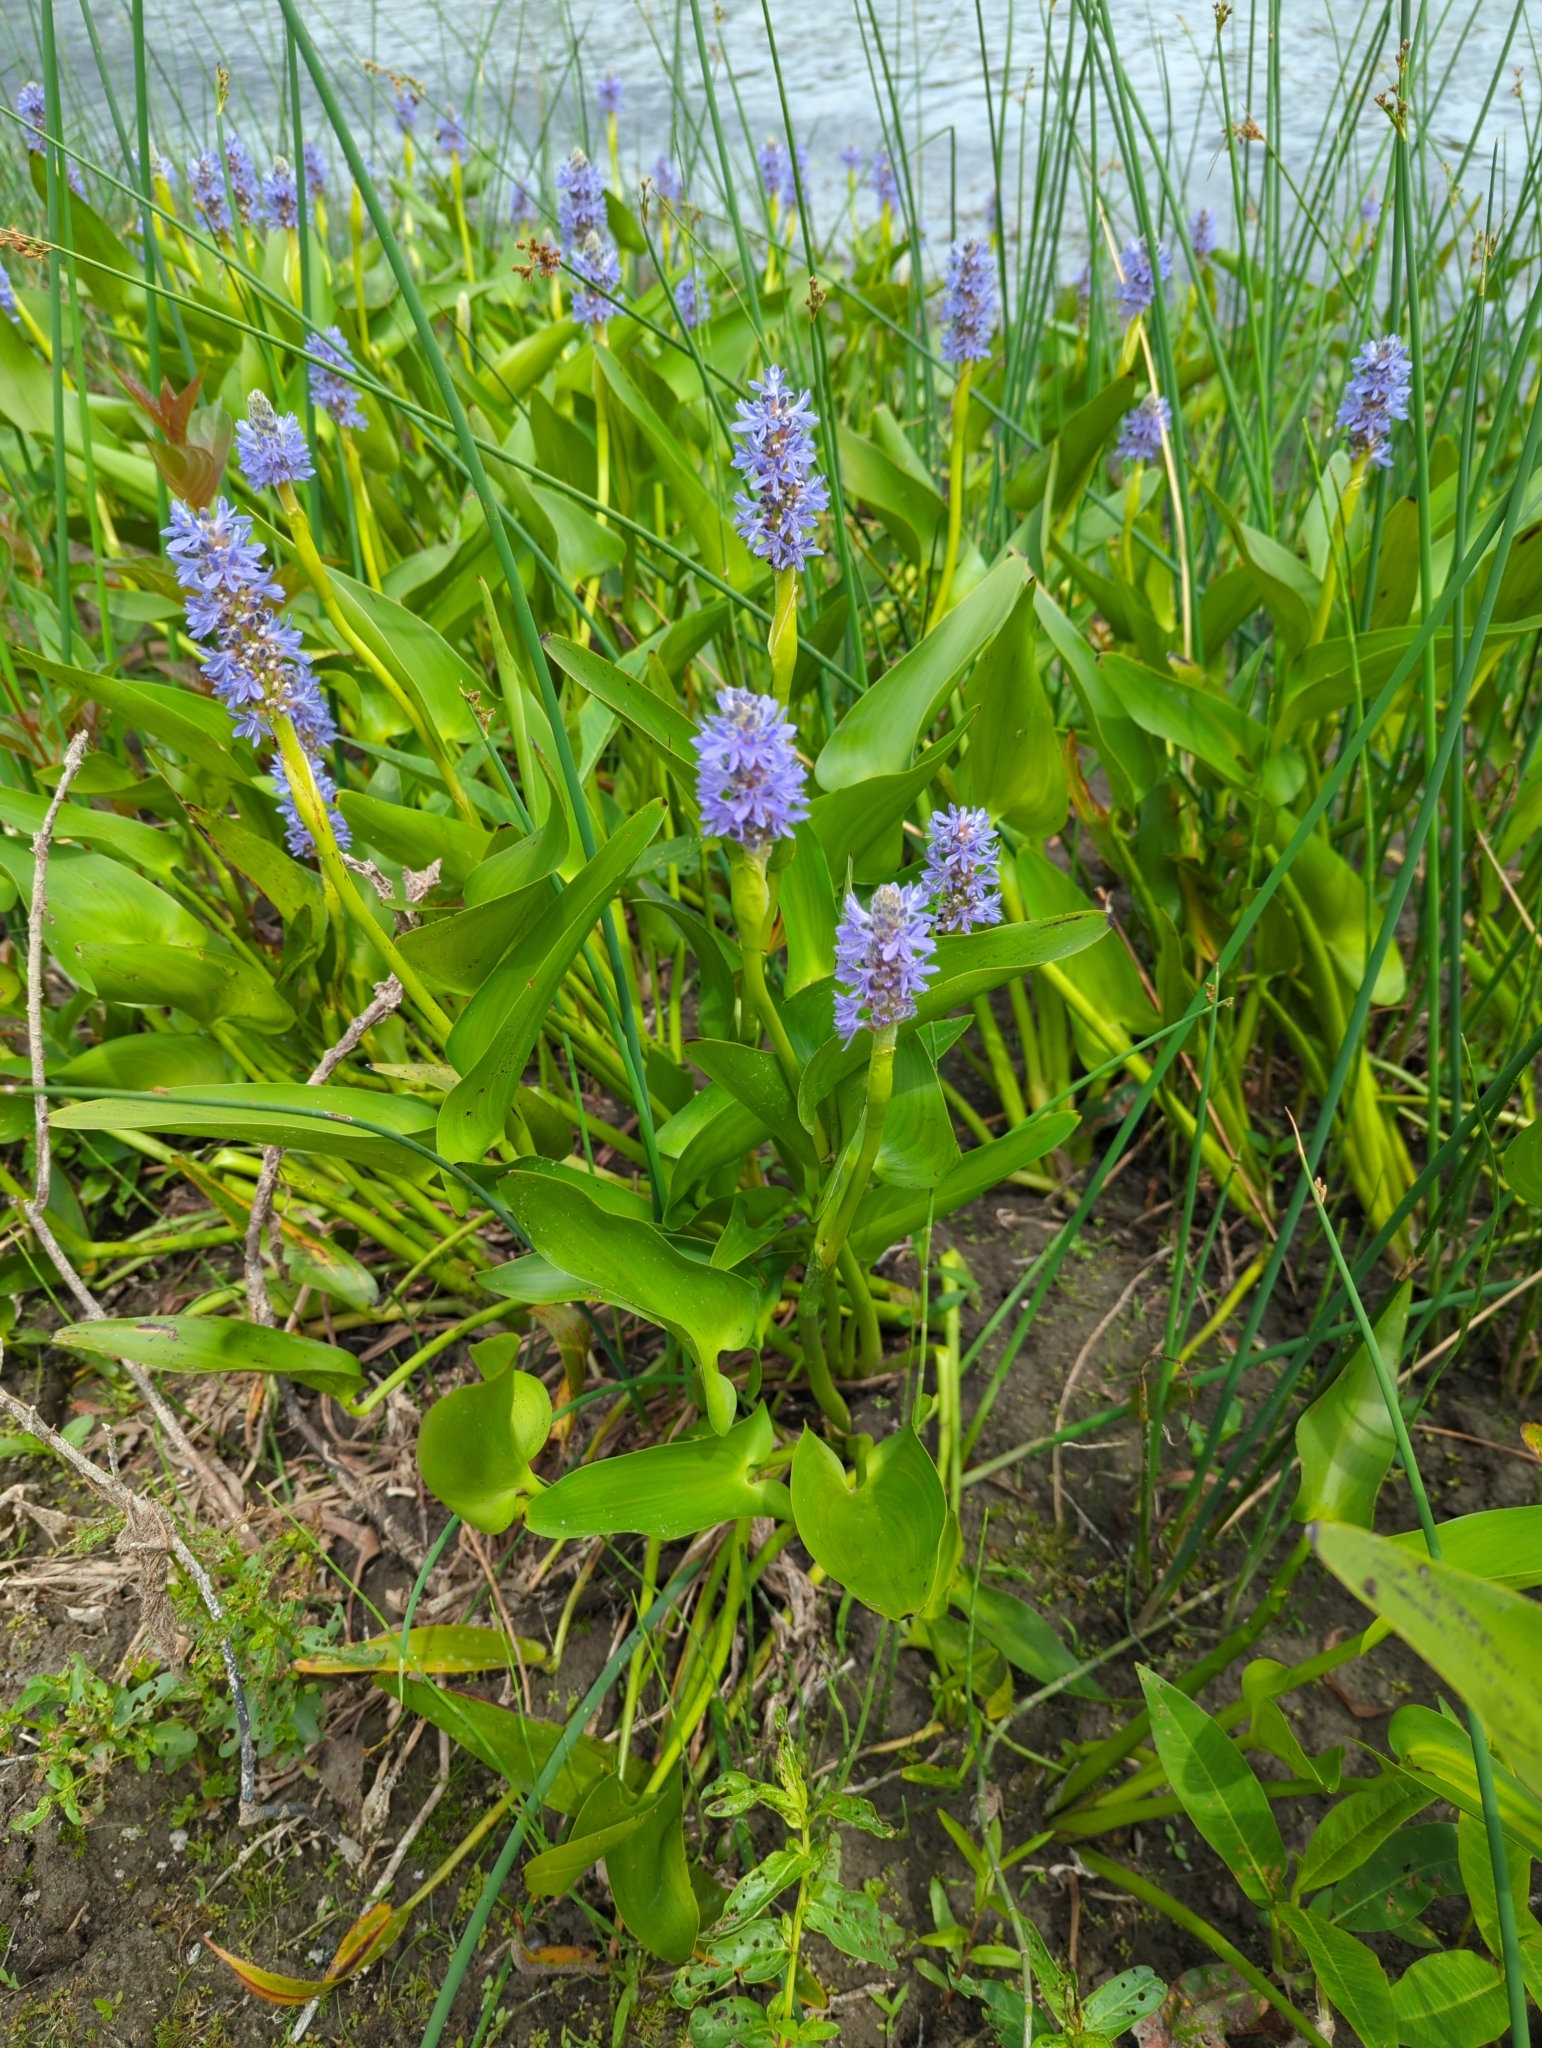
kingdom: Plantae
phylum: Tracheophyta
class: Liliopsida
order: Commelinales
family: Pontederiaceae
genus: Pontederia
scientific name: Pontederia cordata
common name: Pickerelweed
